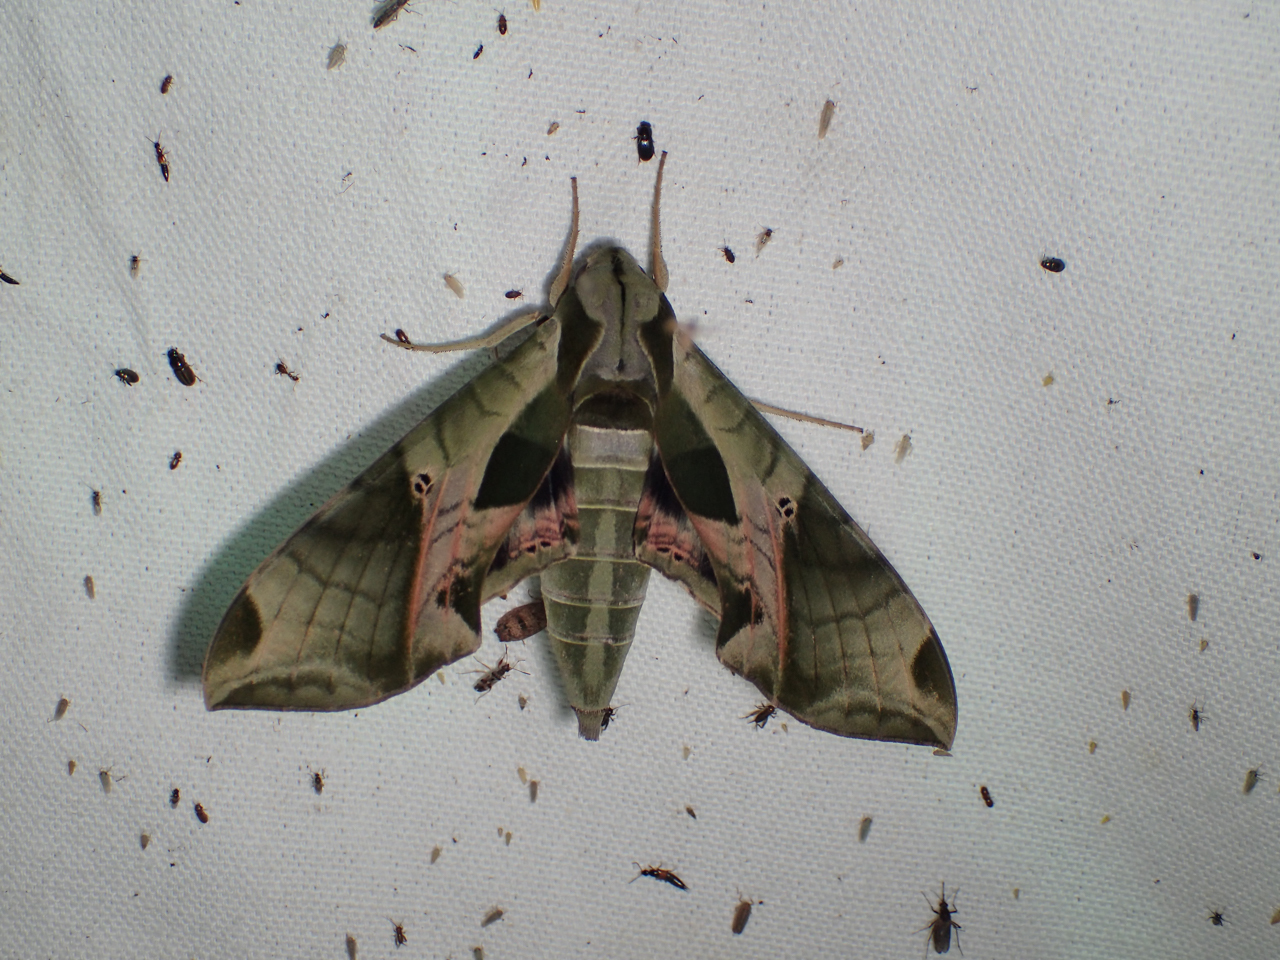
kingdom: Animalia
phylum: Arthropoda
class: Insecta
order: Lepidoptera
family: Sphingidae
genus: Eumorpha
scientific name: Eumorpha pandorus
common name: Pandora sphinx
